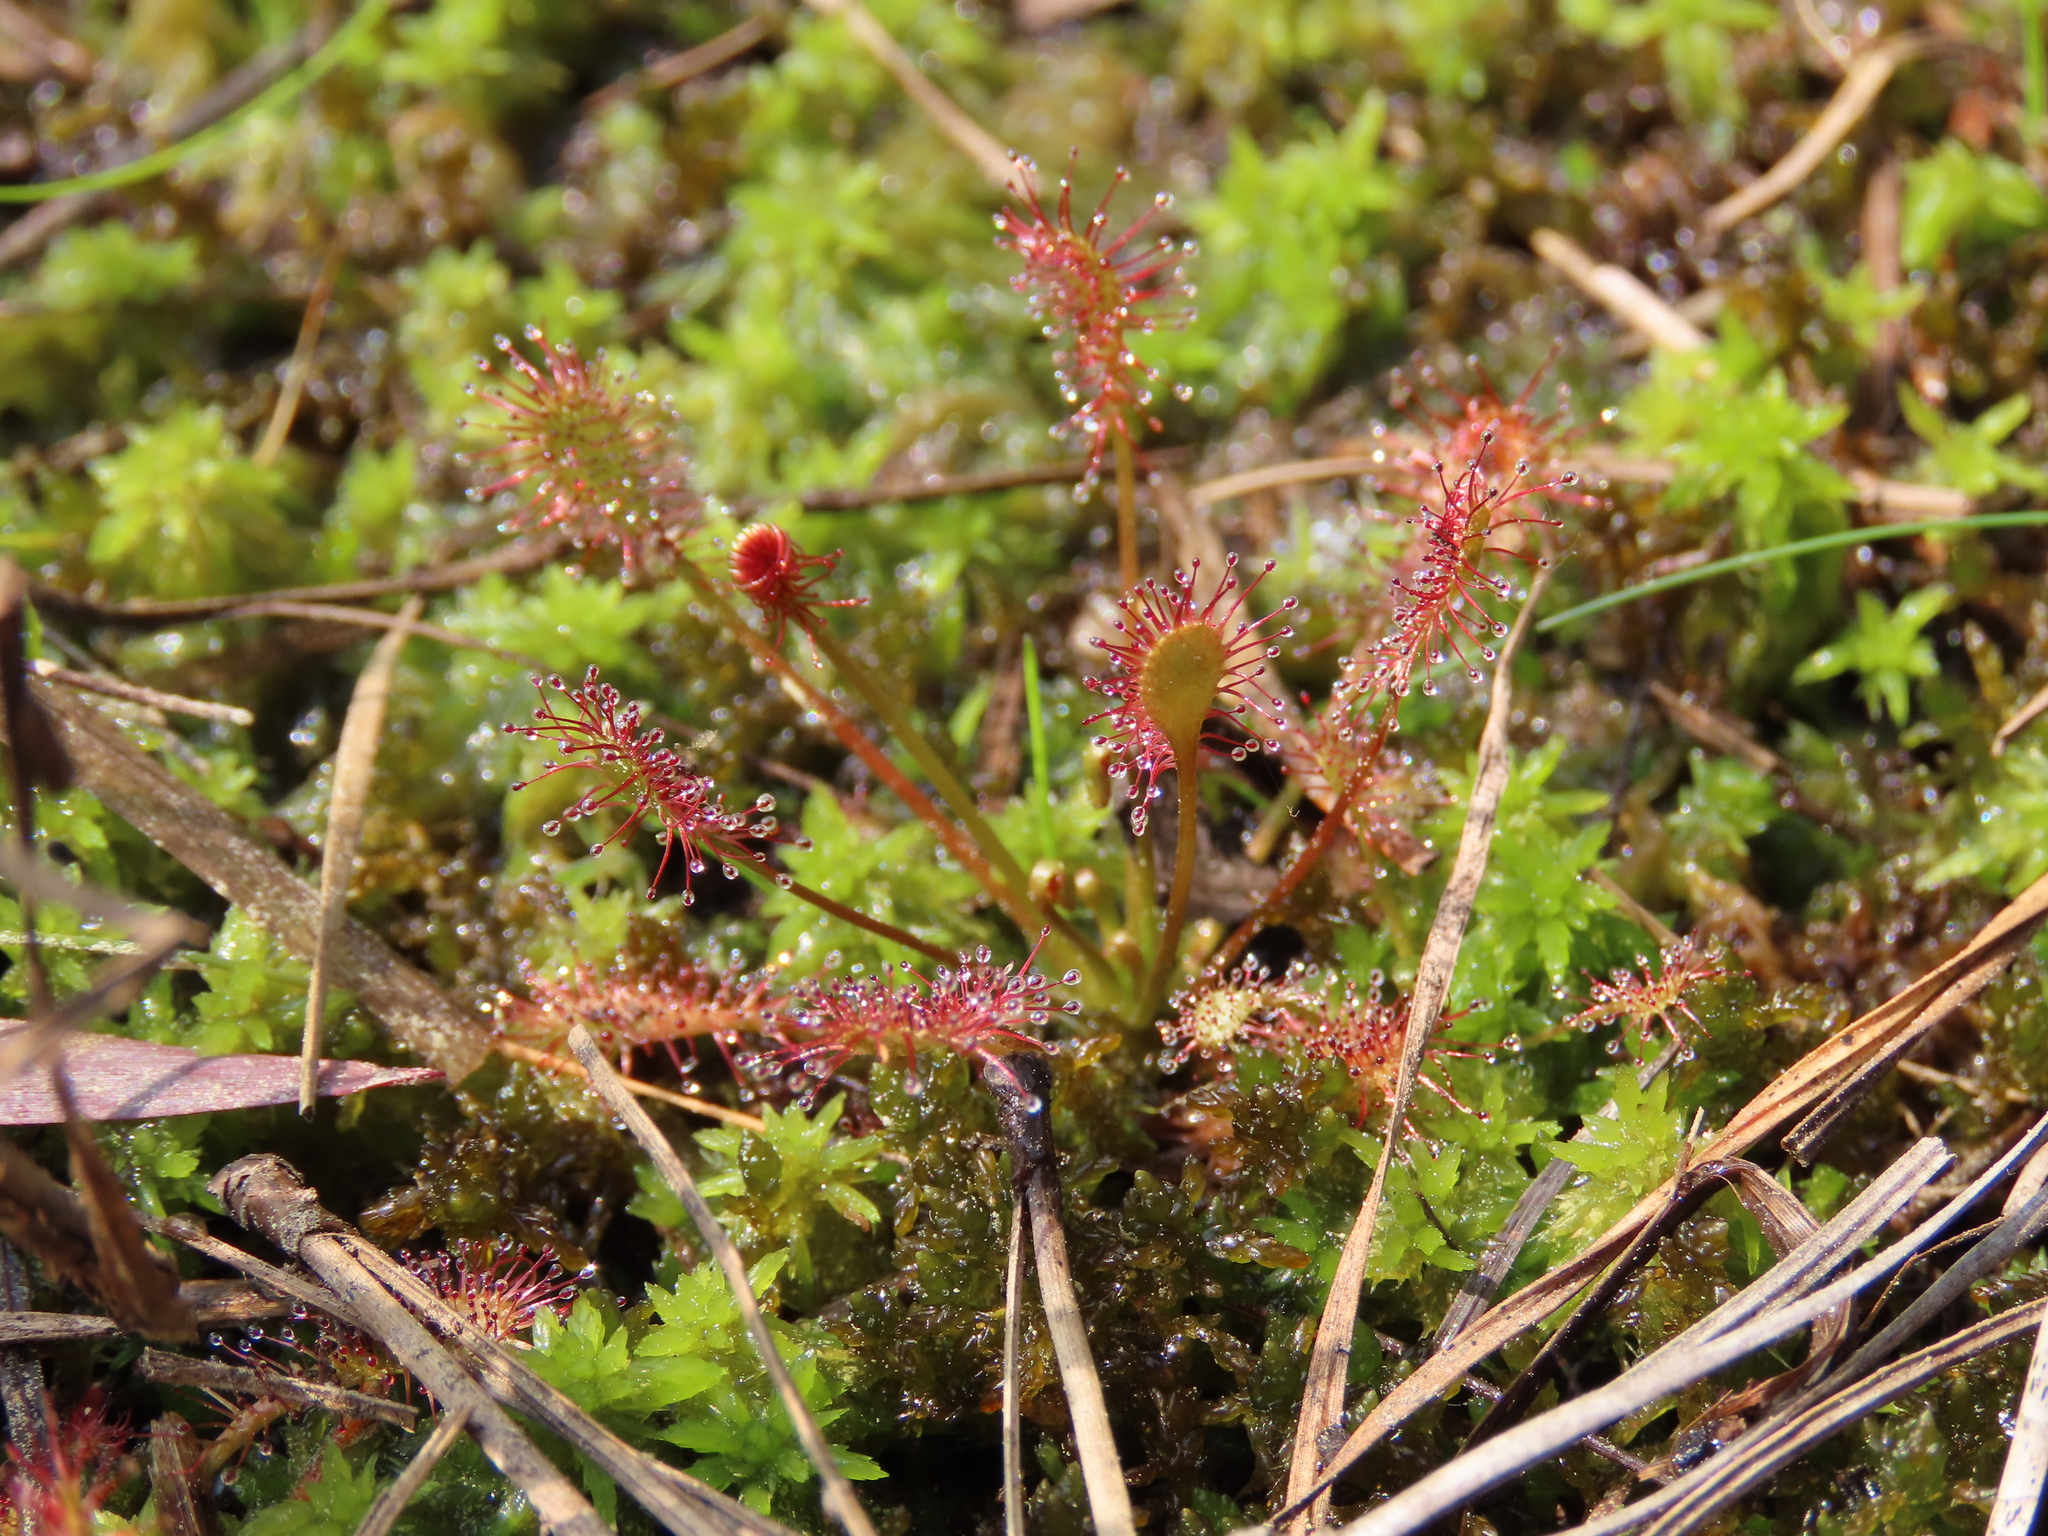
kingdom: Plantae
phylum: Tracheophyta
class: Magnoliopsida
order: Caryophyllales
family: Droseraceae
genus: Drosera
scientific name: Drosera intermedia
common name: Oblong-leaved sundew
